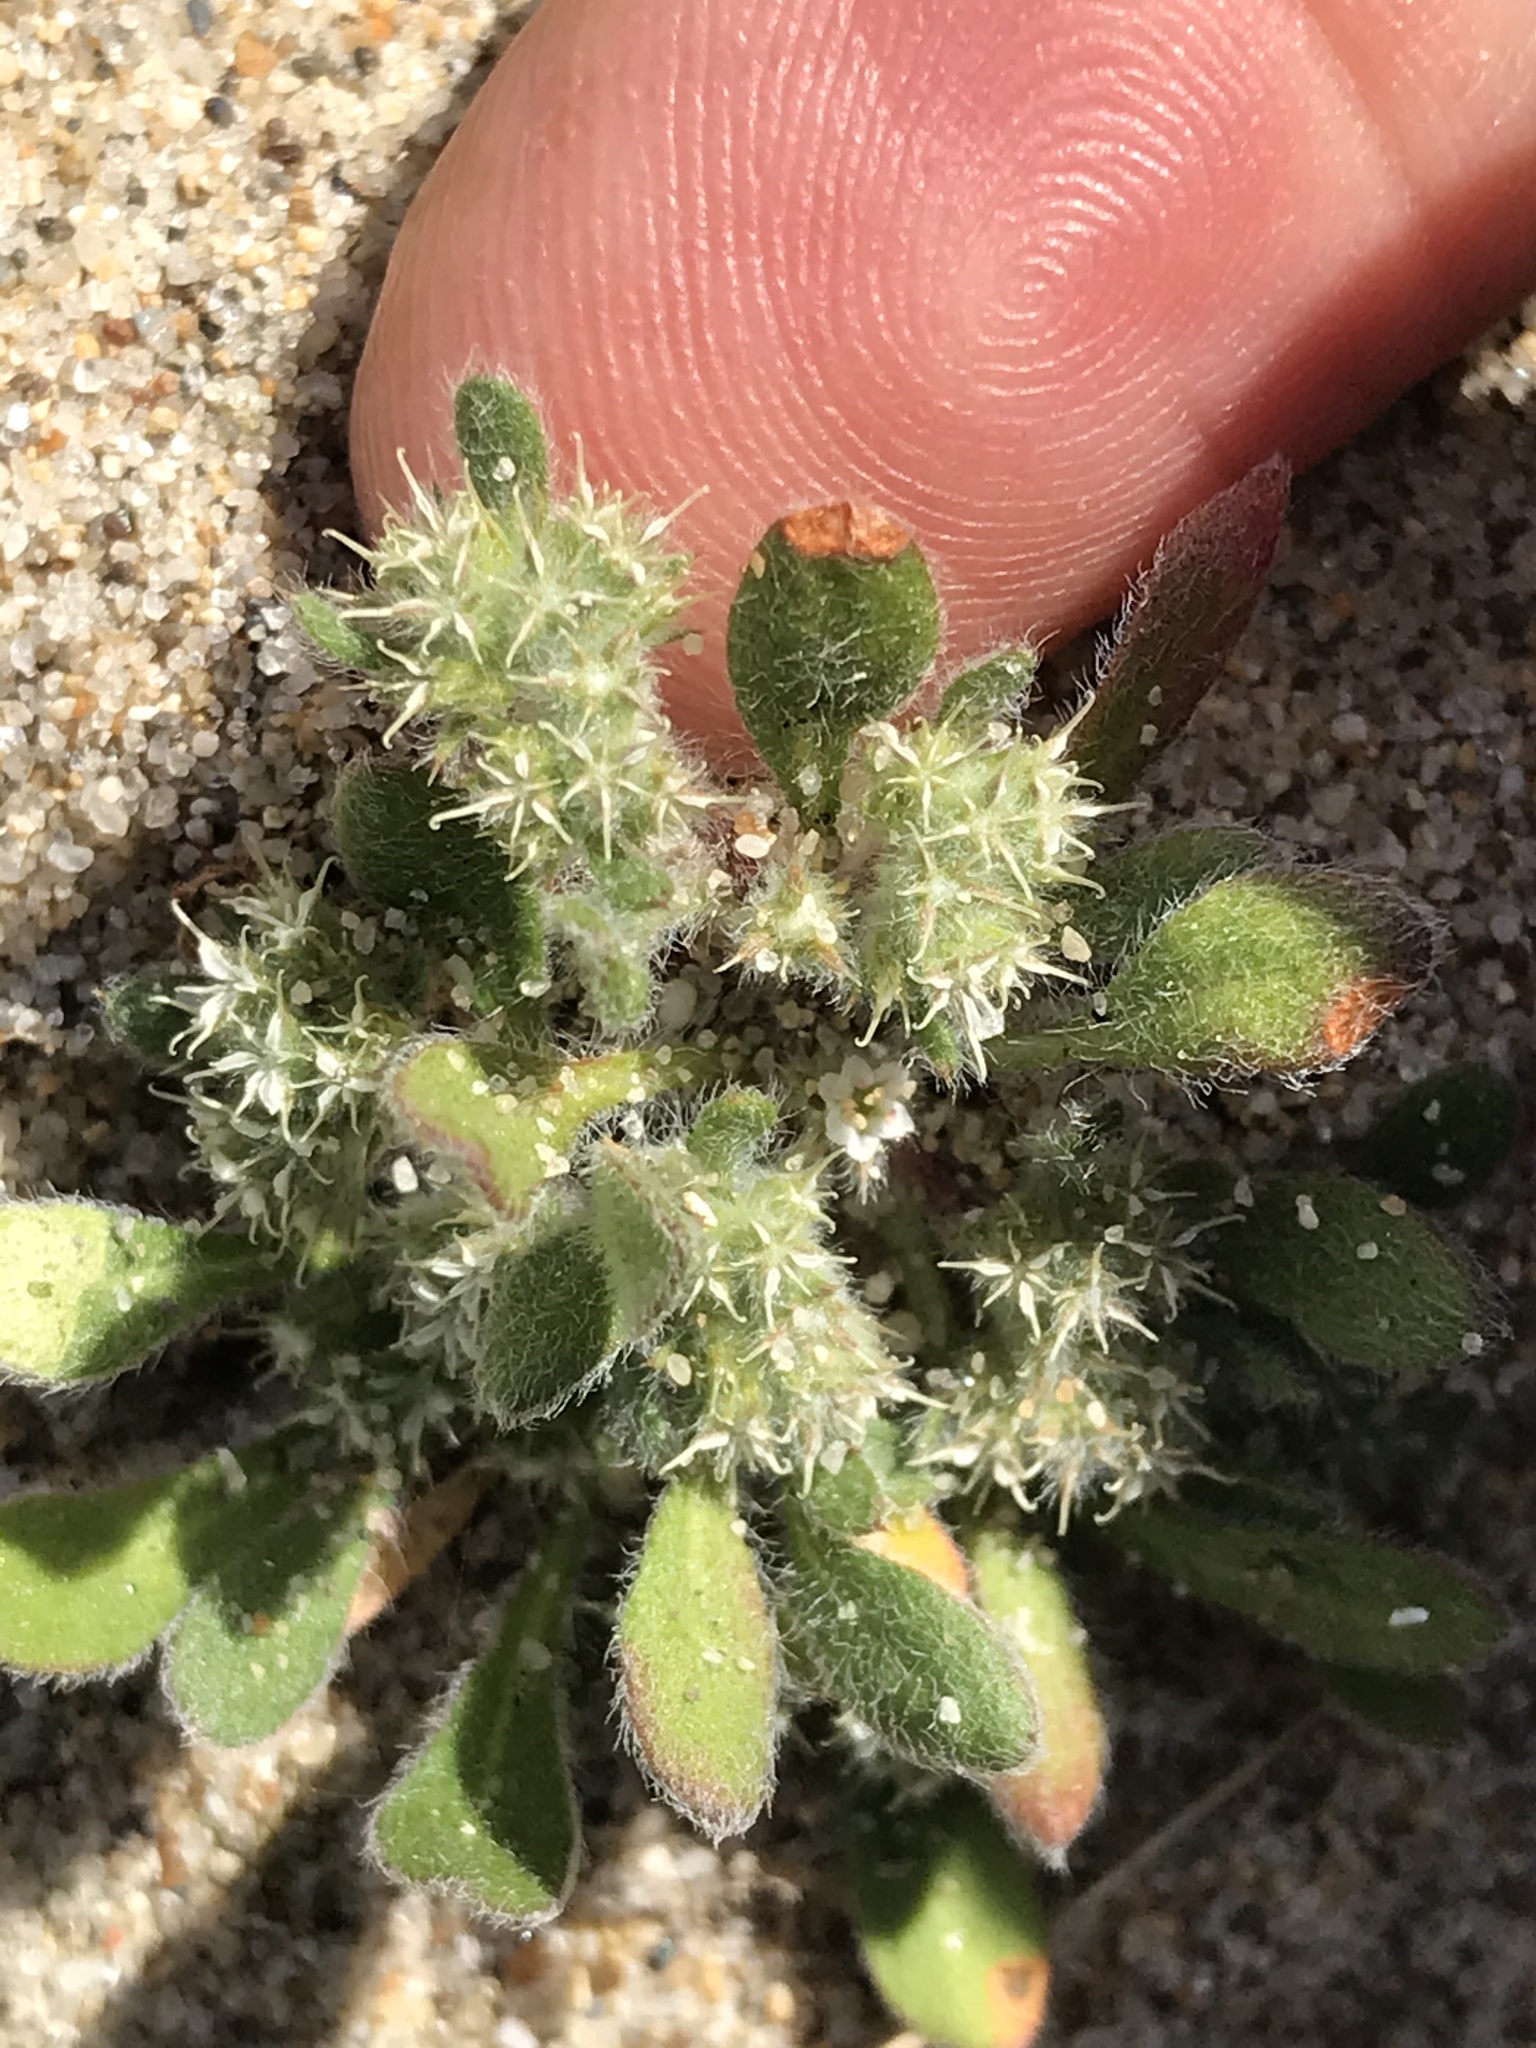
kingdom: Plantae
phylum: Tracheophyta
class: Magnoliopsida
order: Caryophyllales
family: Polygonaceae
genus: Chorizanthe
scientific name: Chorizanthe pungens
